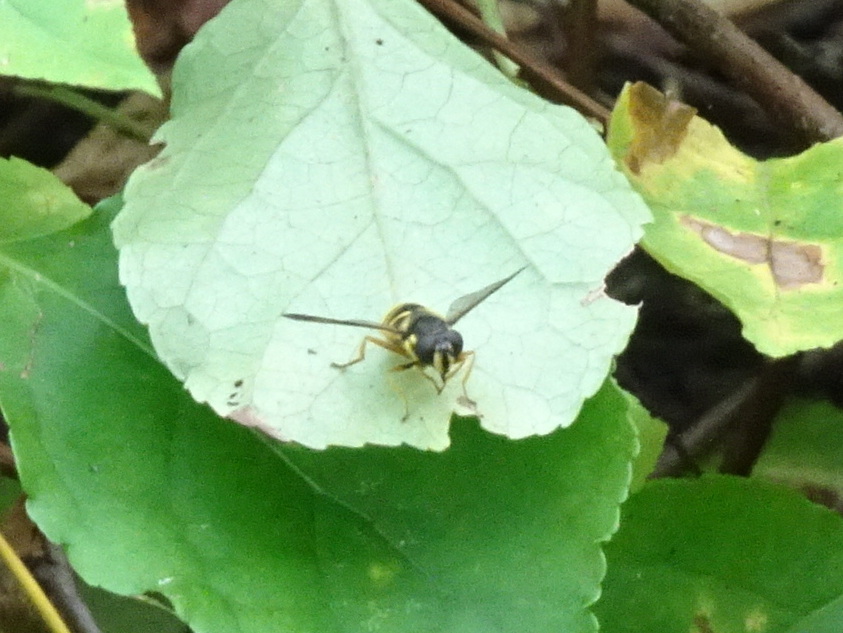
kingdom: Animalia
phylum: Arthropoda
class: Insecta
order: Diptera
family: Syrphidae
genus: Sericomyia
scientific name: Sericomyia chrysotoxoides
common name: Oblique-banded pond fly
